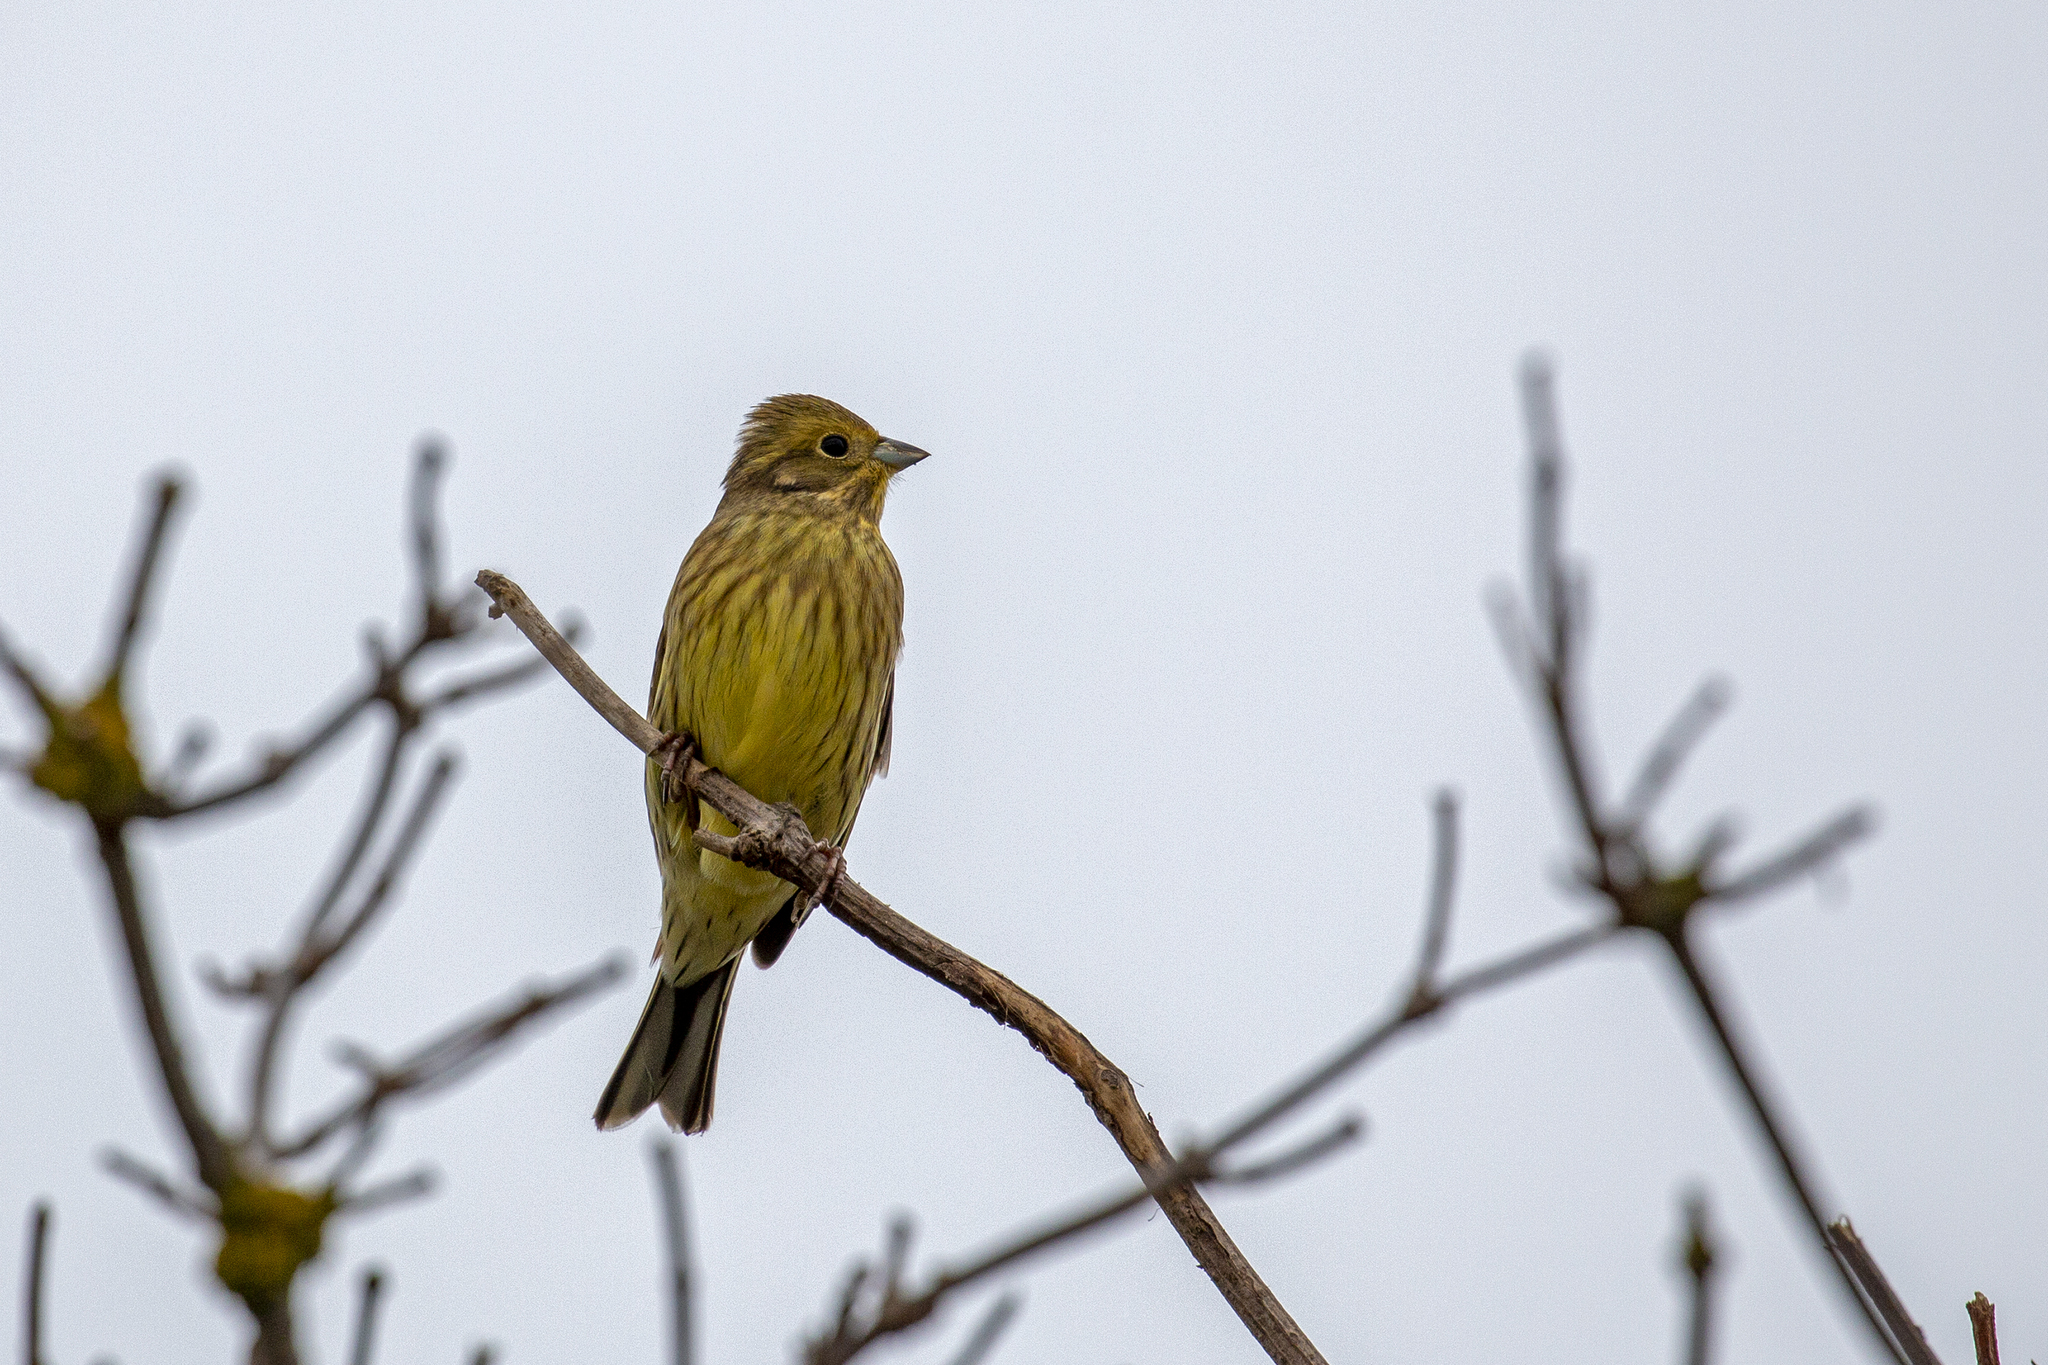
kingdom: Animalia
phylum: Chordata
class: Aves
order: Passeriformes
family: Emberizidae
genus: Emberiza
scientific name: Emberiza citrinella
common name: Yellowhammer
